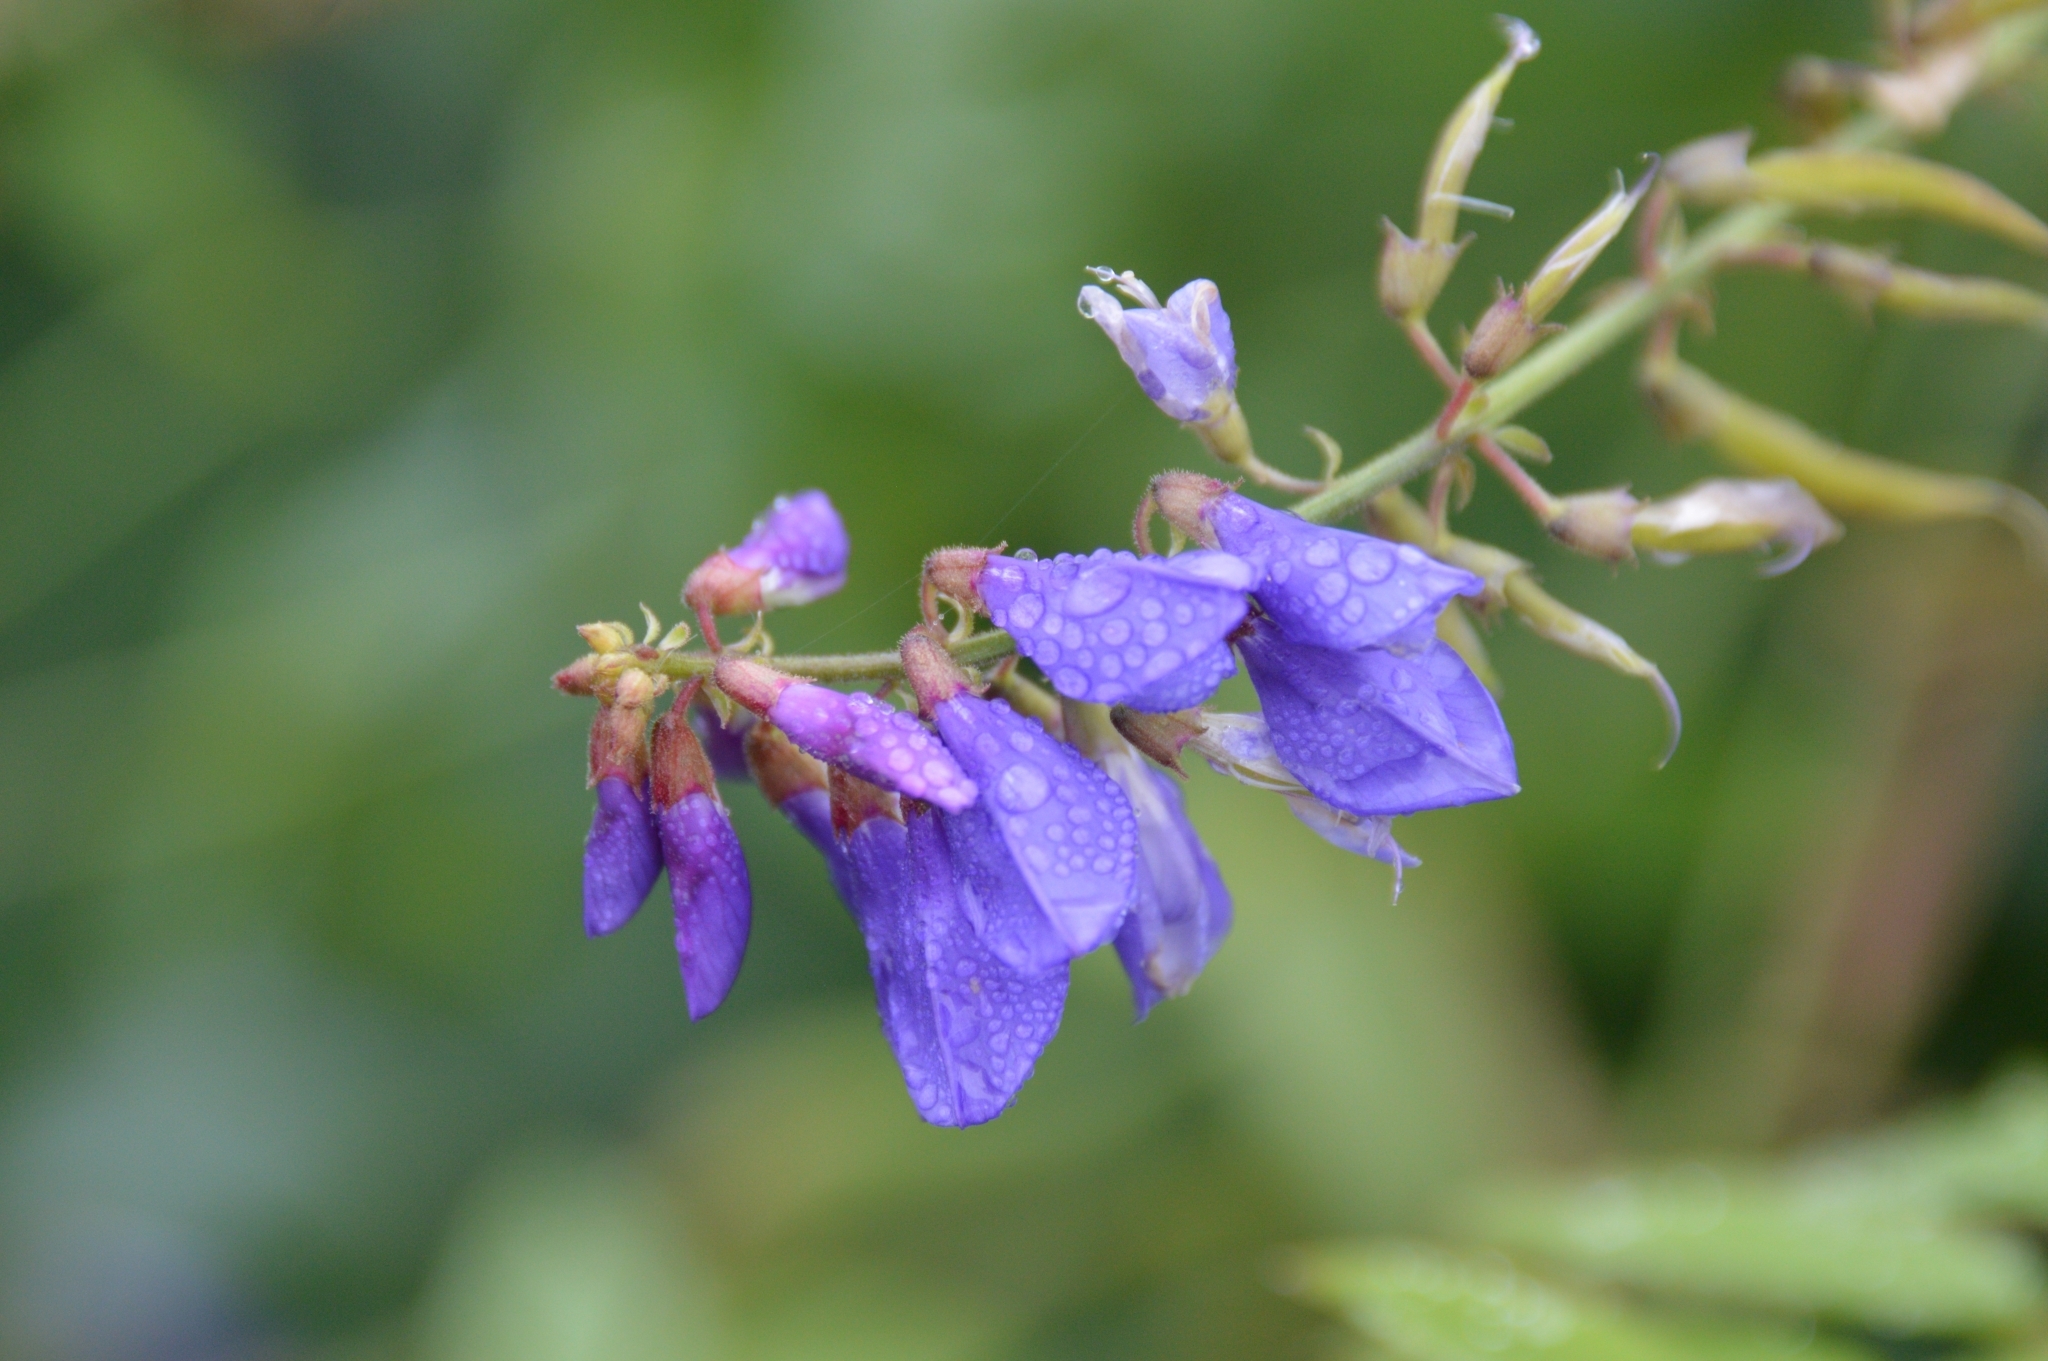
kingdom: Plantae
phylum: Tracheophyta
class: Magnoliopsida
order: Fabales
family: Fabaceae
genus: Galega
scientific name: Galega orientalis
